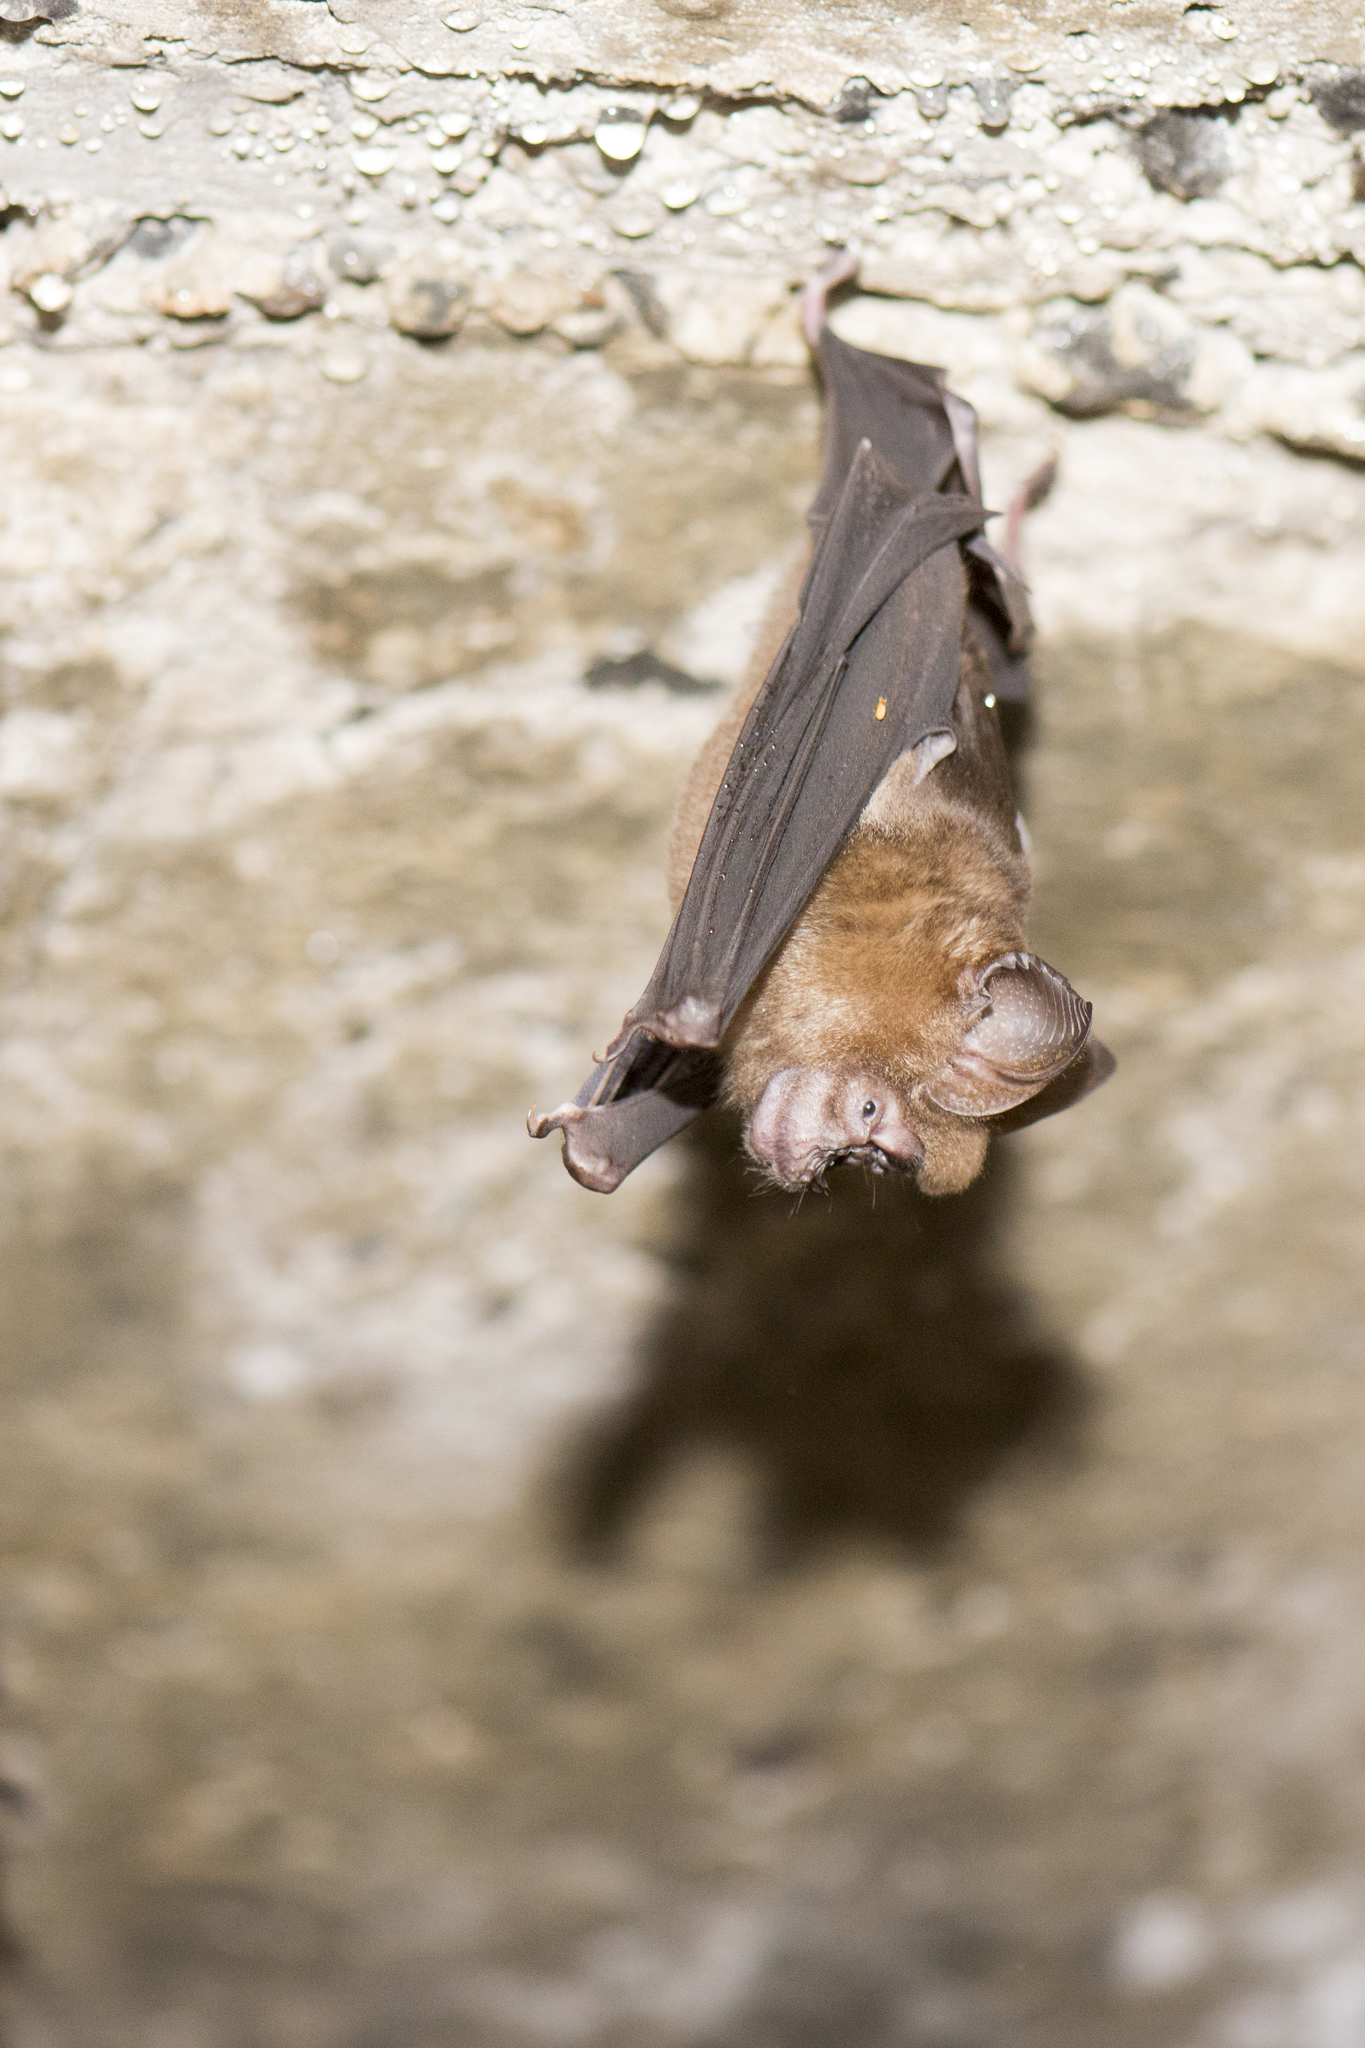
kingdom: Animalia
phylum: Chordata
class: Mammalia
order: Chiroptera
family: Hipposideridae
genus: Hipposideros
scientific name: Hipposideros armiger
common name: Great leaf-nosed bat
